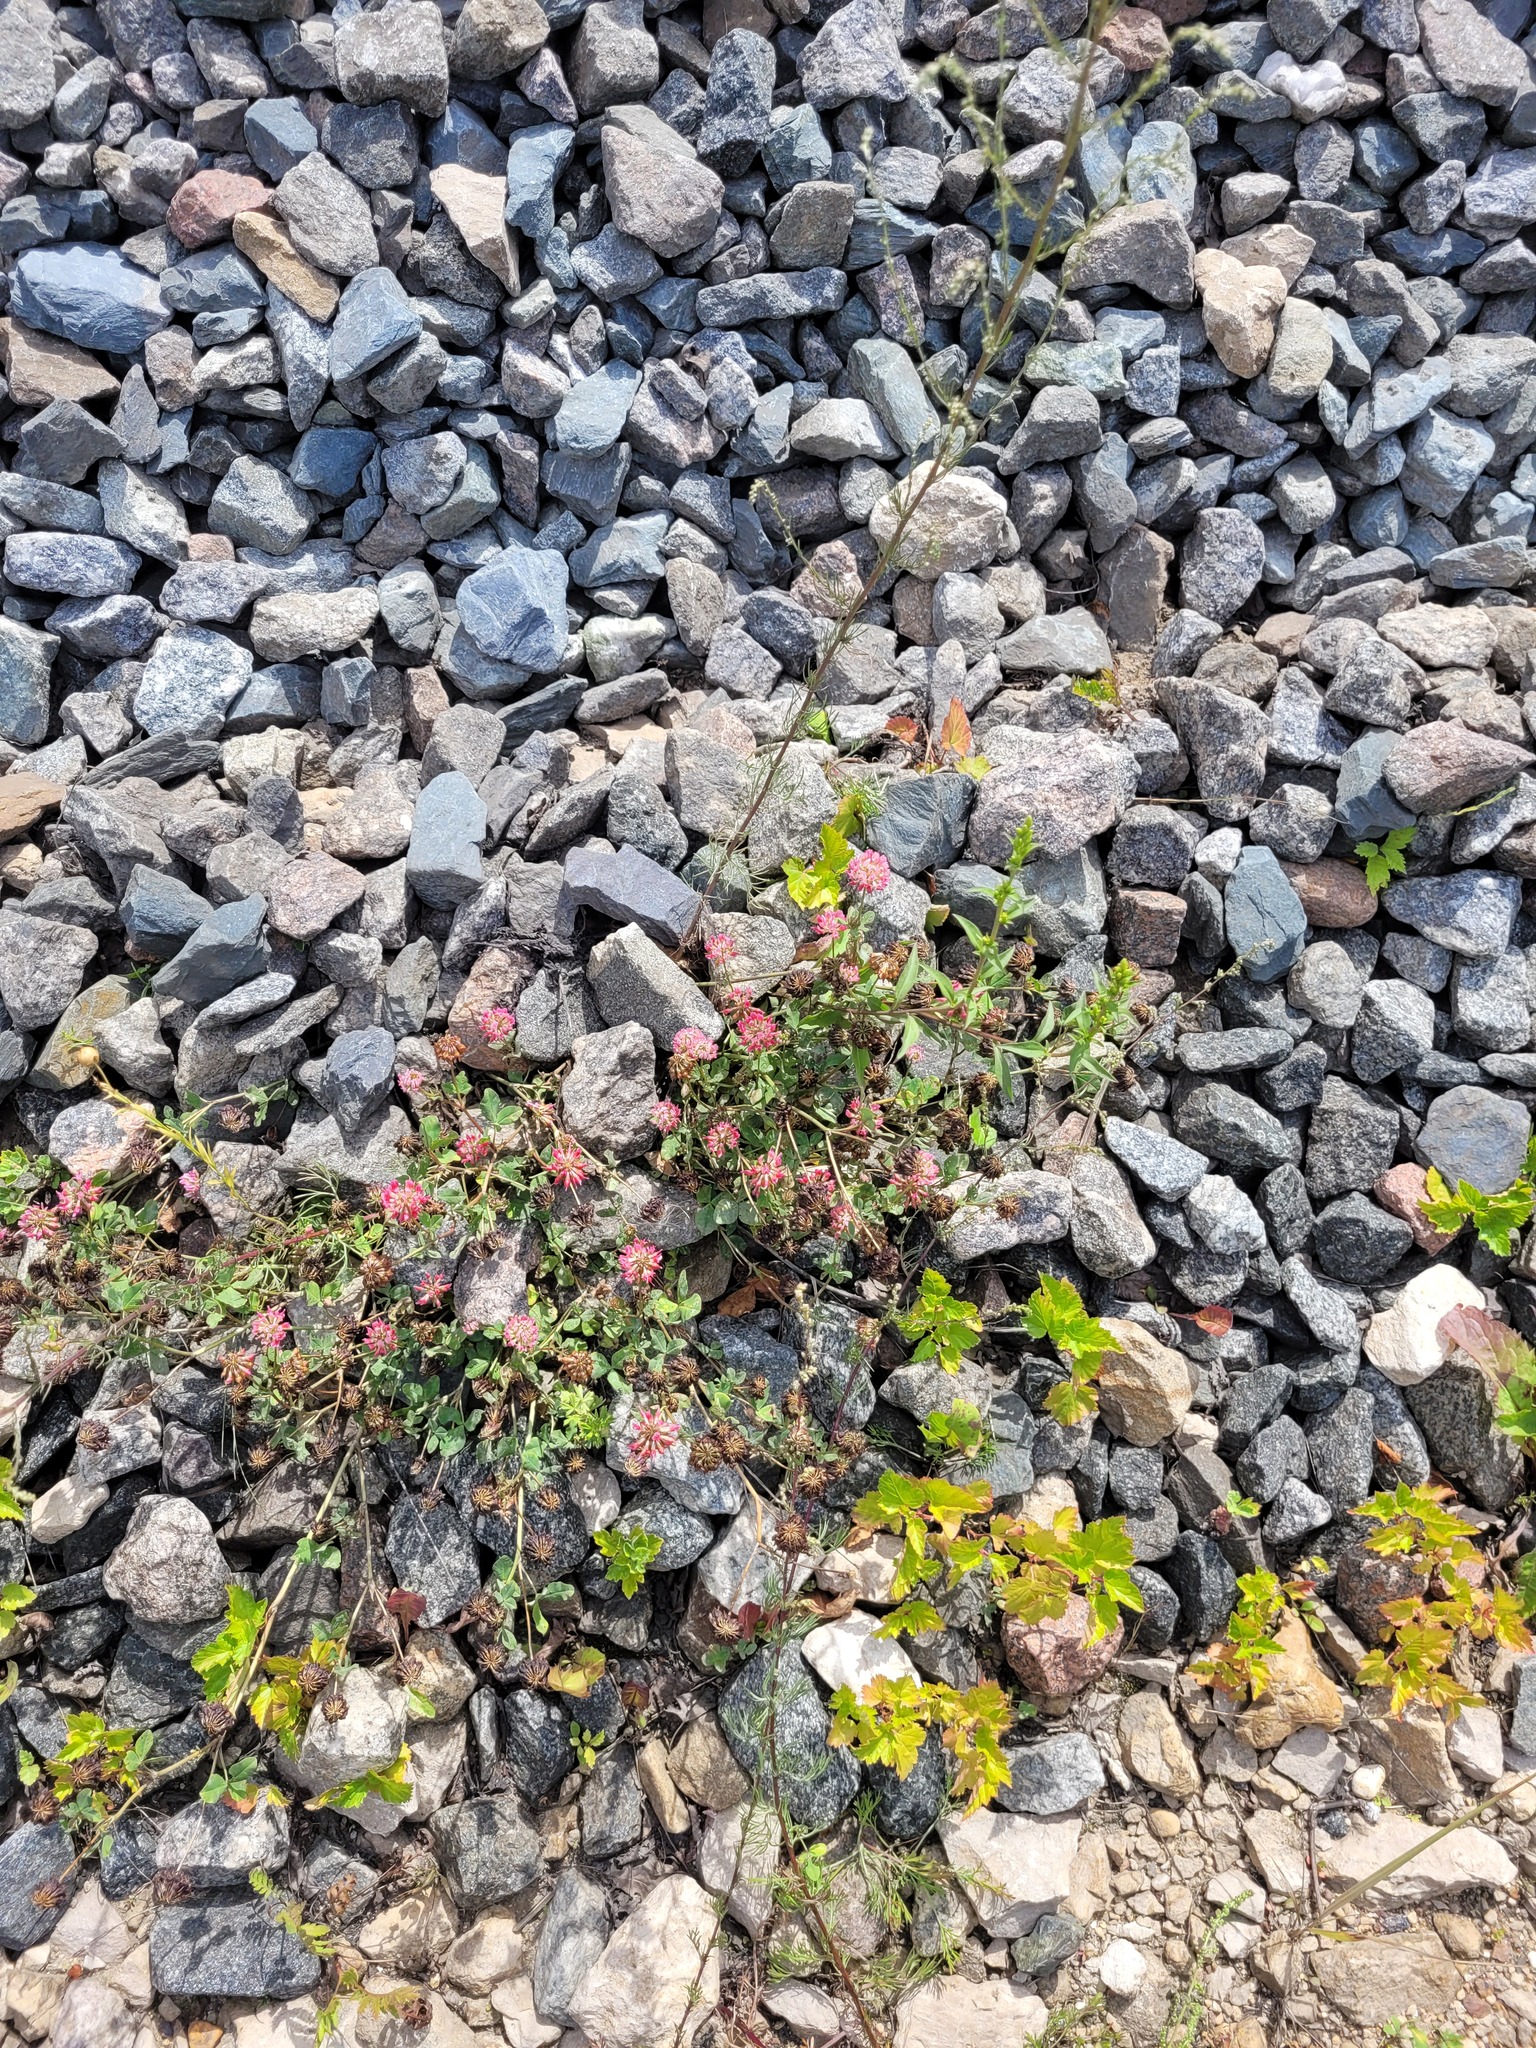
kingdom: Plantae
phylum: Tracheophyta
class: Magnoliopsida
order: Fabales
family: Fabaceae
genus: Trifolium
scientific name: Trifolium hybridum
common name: Alsike clover
